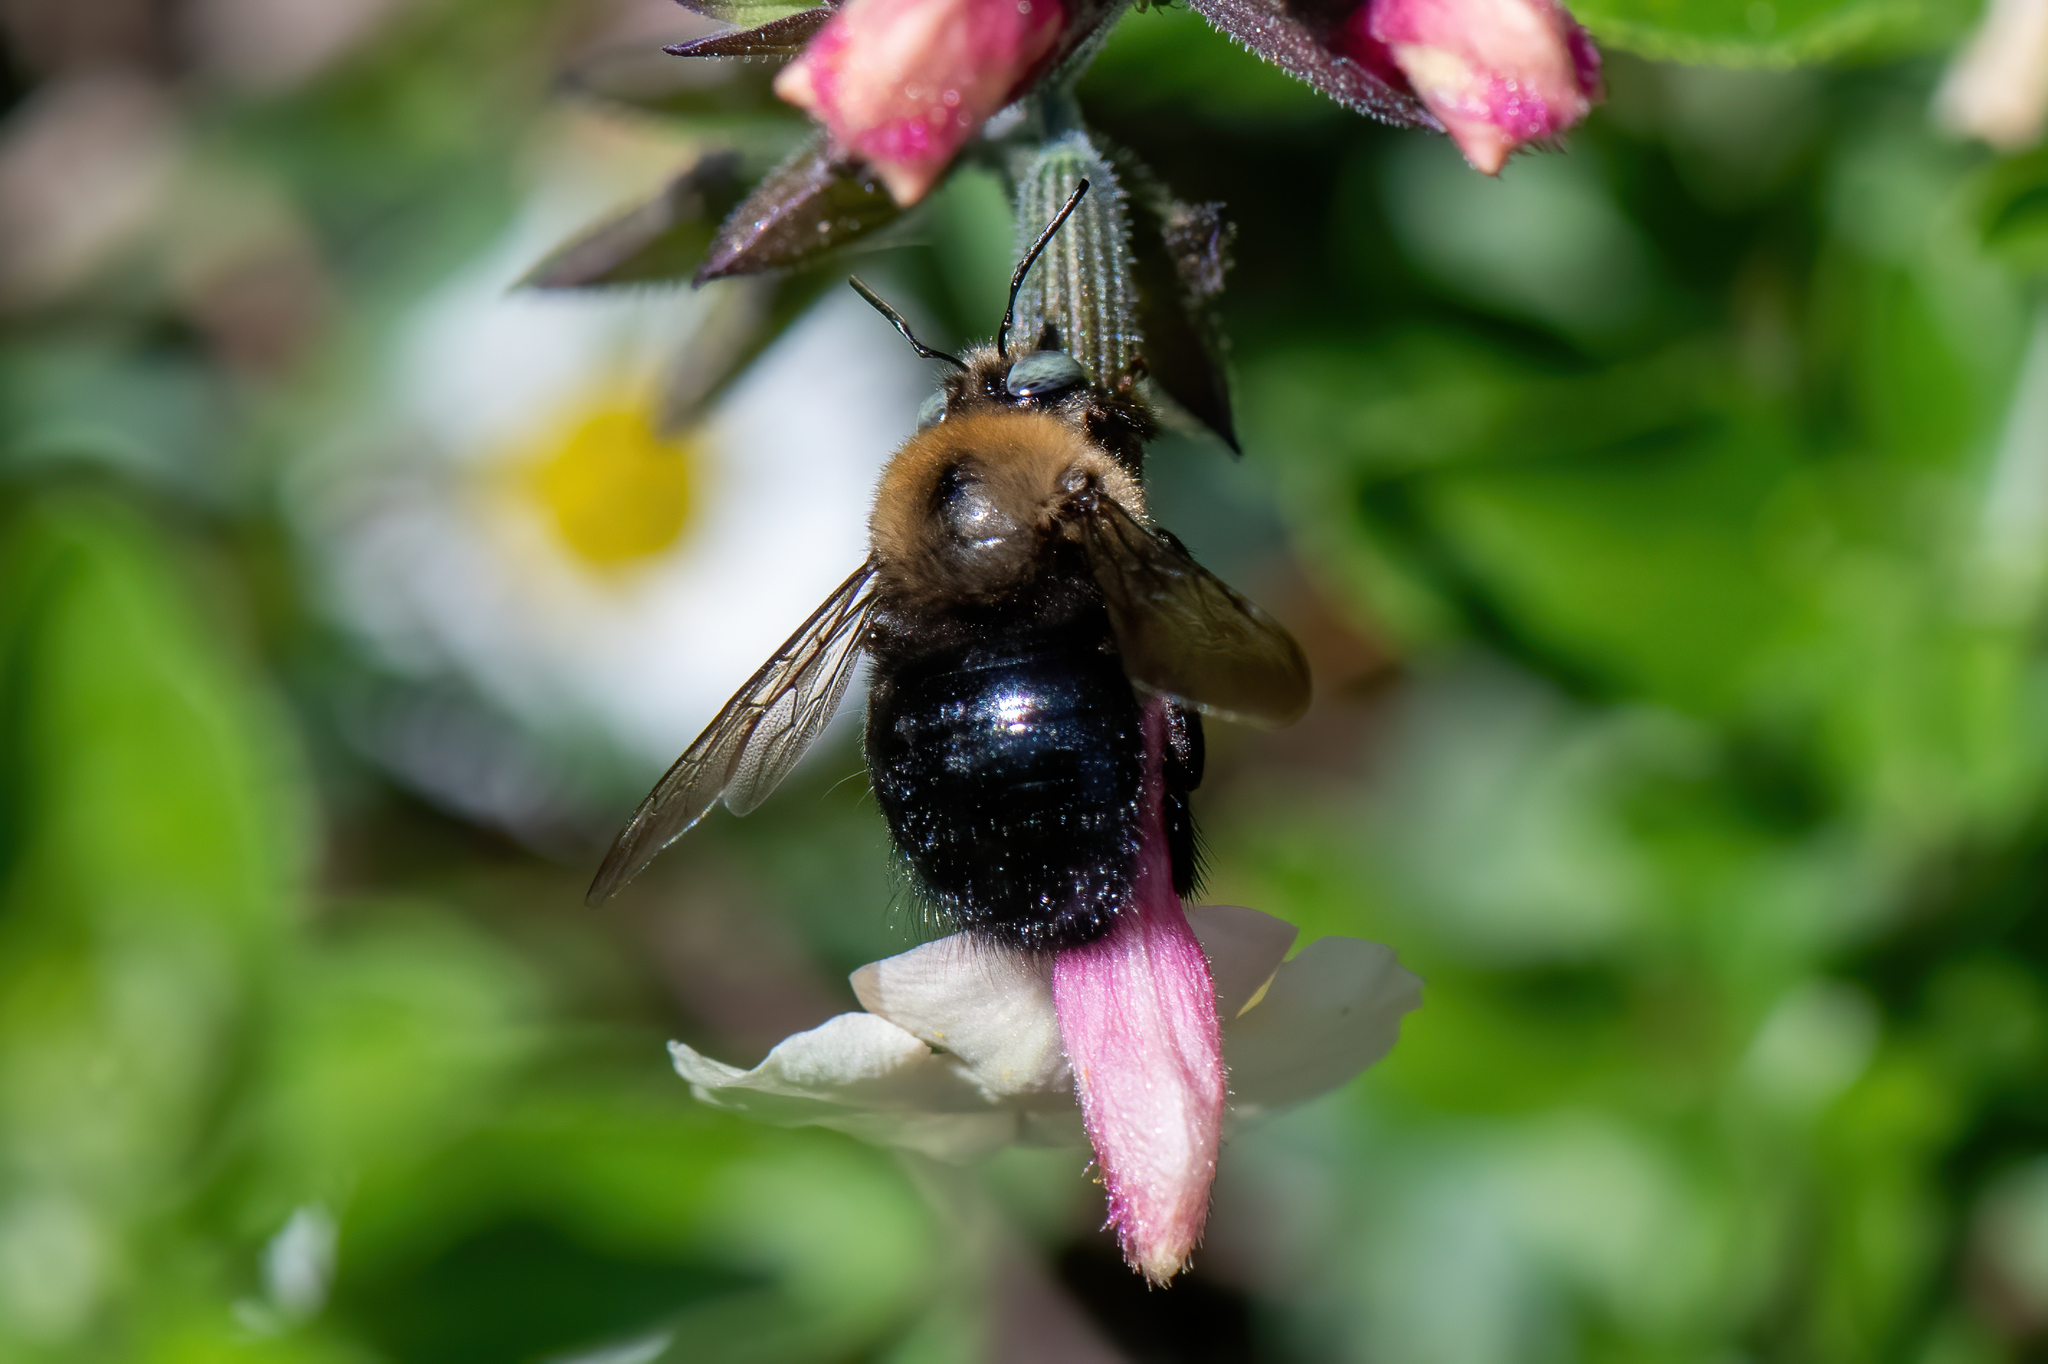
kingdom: Animalia
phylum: Arthropoda
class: Insecta
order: Hymenoptera
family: Apidae
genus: Xylocopa
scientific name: Xylocopa tabaniformis
